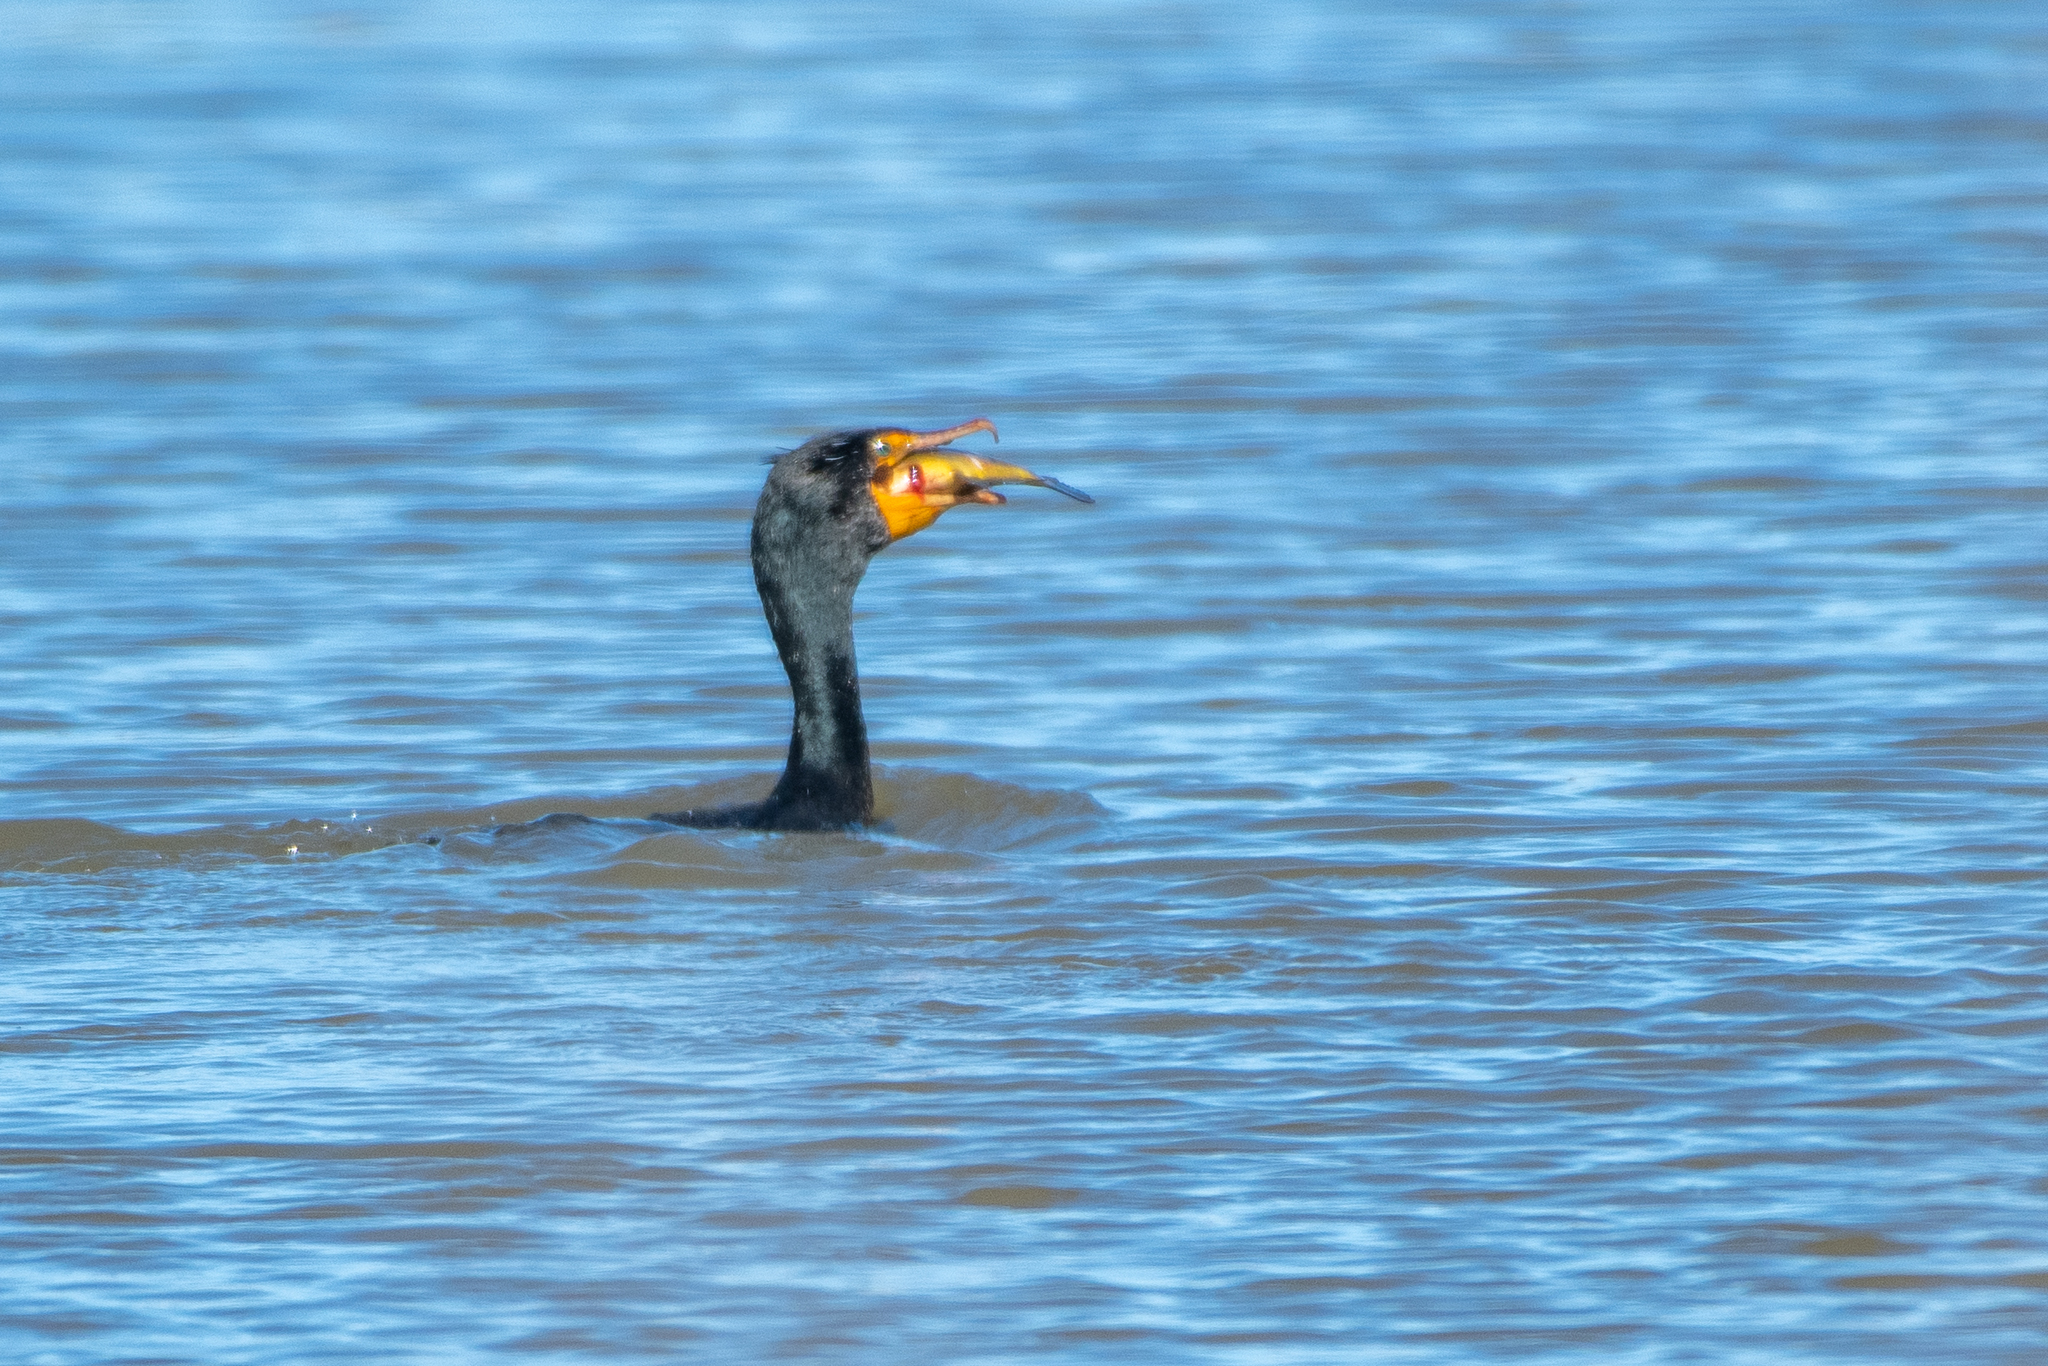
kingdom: Animalia
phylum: Chordata
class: Aves
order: Suliformes
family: Phalacrocoracidae
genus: Phalacrocorax
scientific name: Phalacrocorax auritus
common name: Double-crested cormorant
